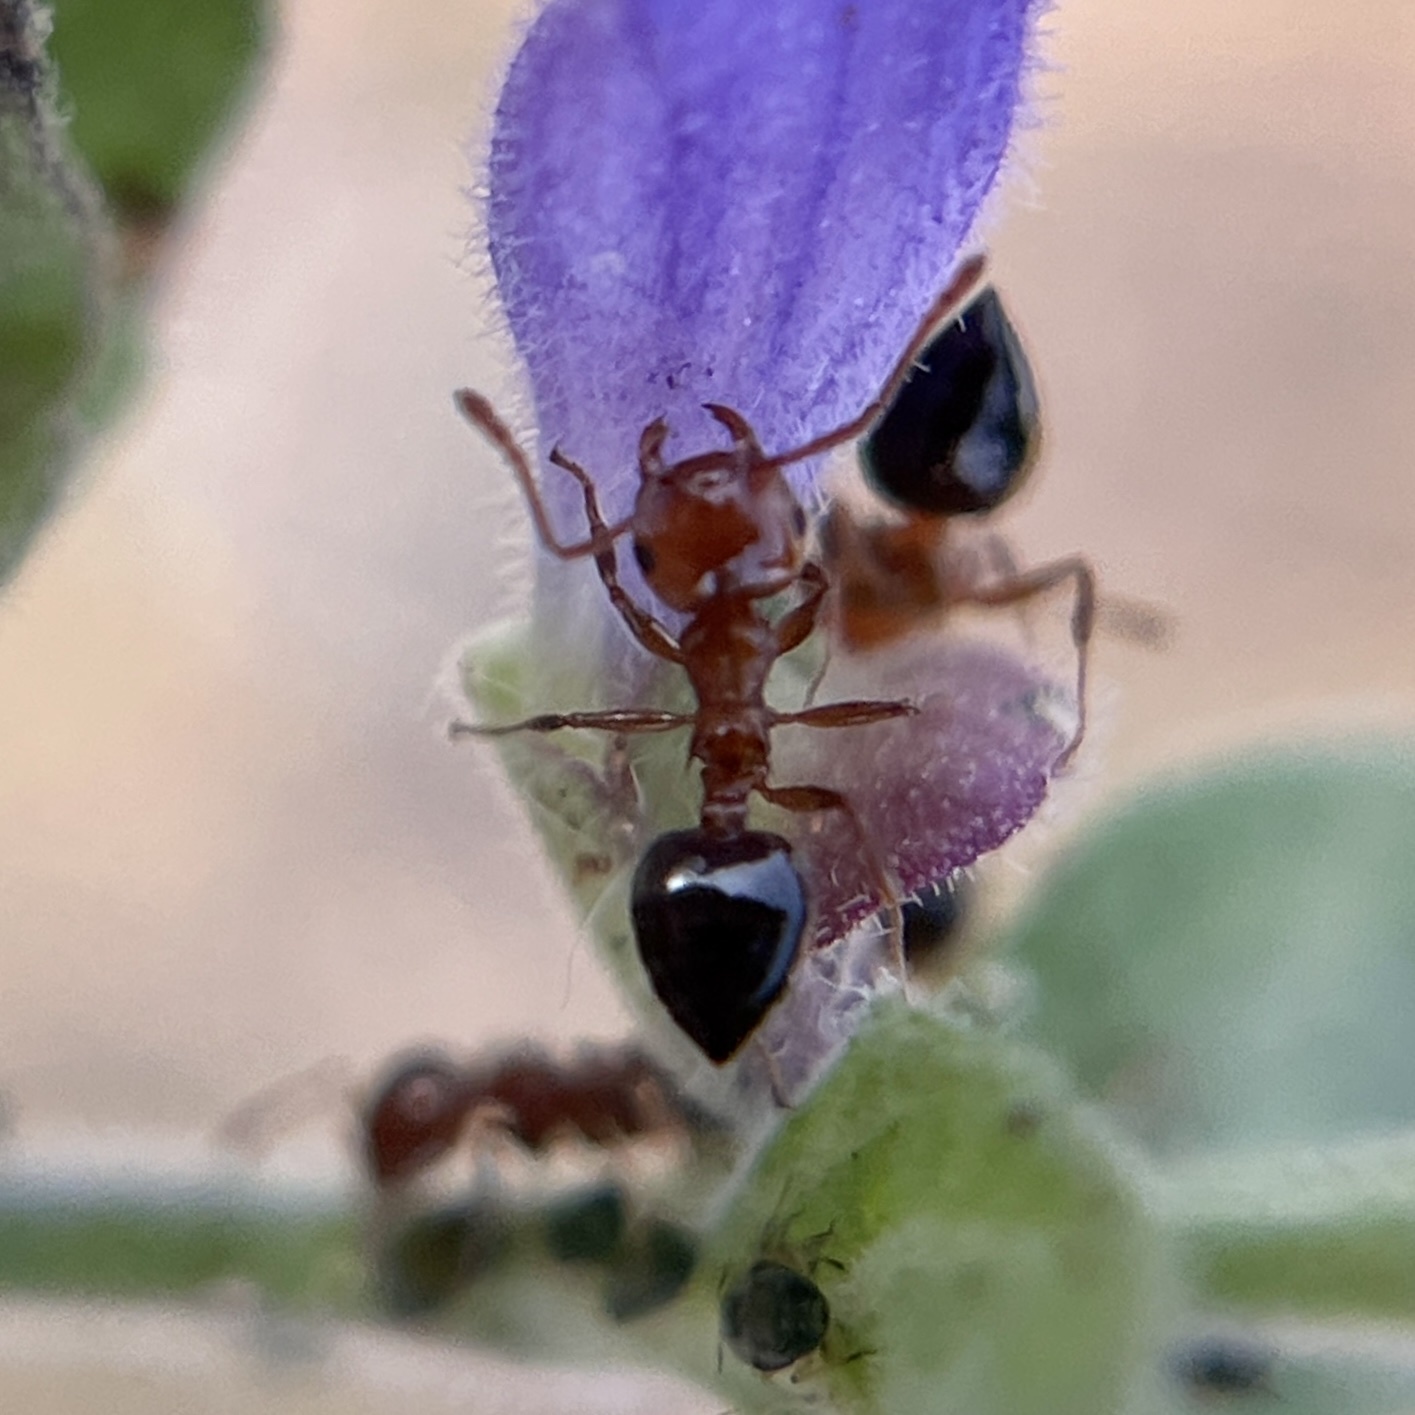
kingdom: Animalia
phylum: Arthropoda
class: Insecta
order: Hymenoptera
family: Formicidae
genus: Crematogaster
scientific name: Crematogaster laeviuscula
